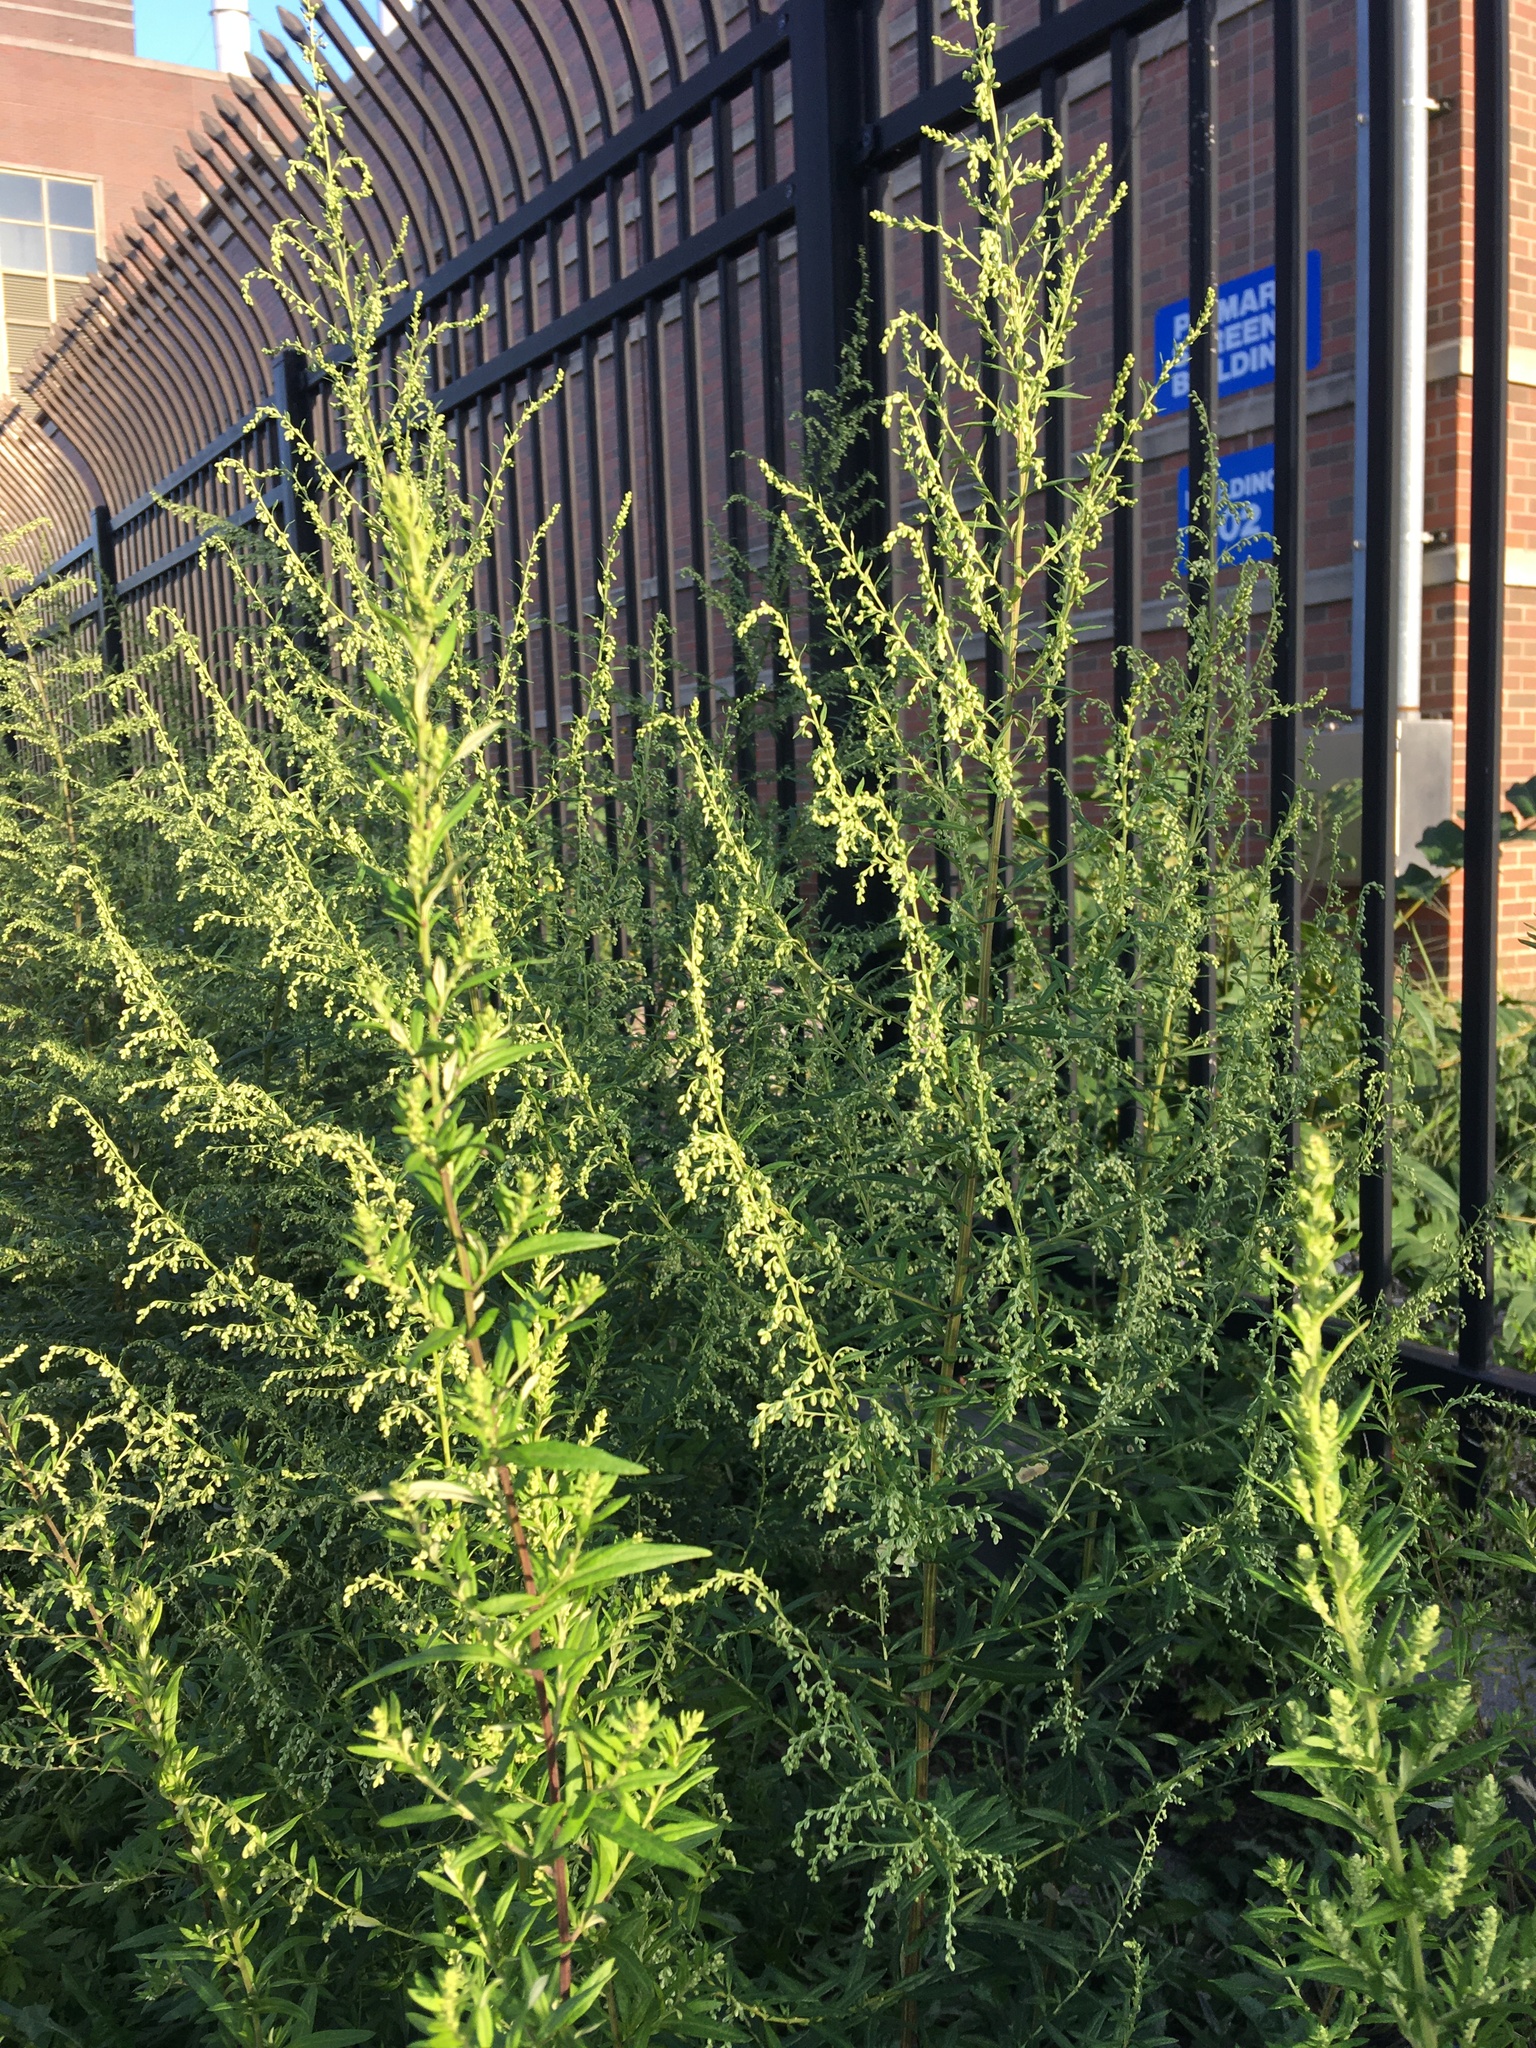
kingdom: Plantae
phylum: Tracheophyta
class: Magnoliopsida
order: Asterales
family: Asteraceae
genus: Artemisia
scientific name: Artemisia vulgaris
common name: Mugwort
